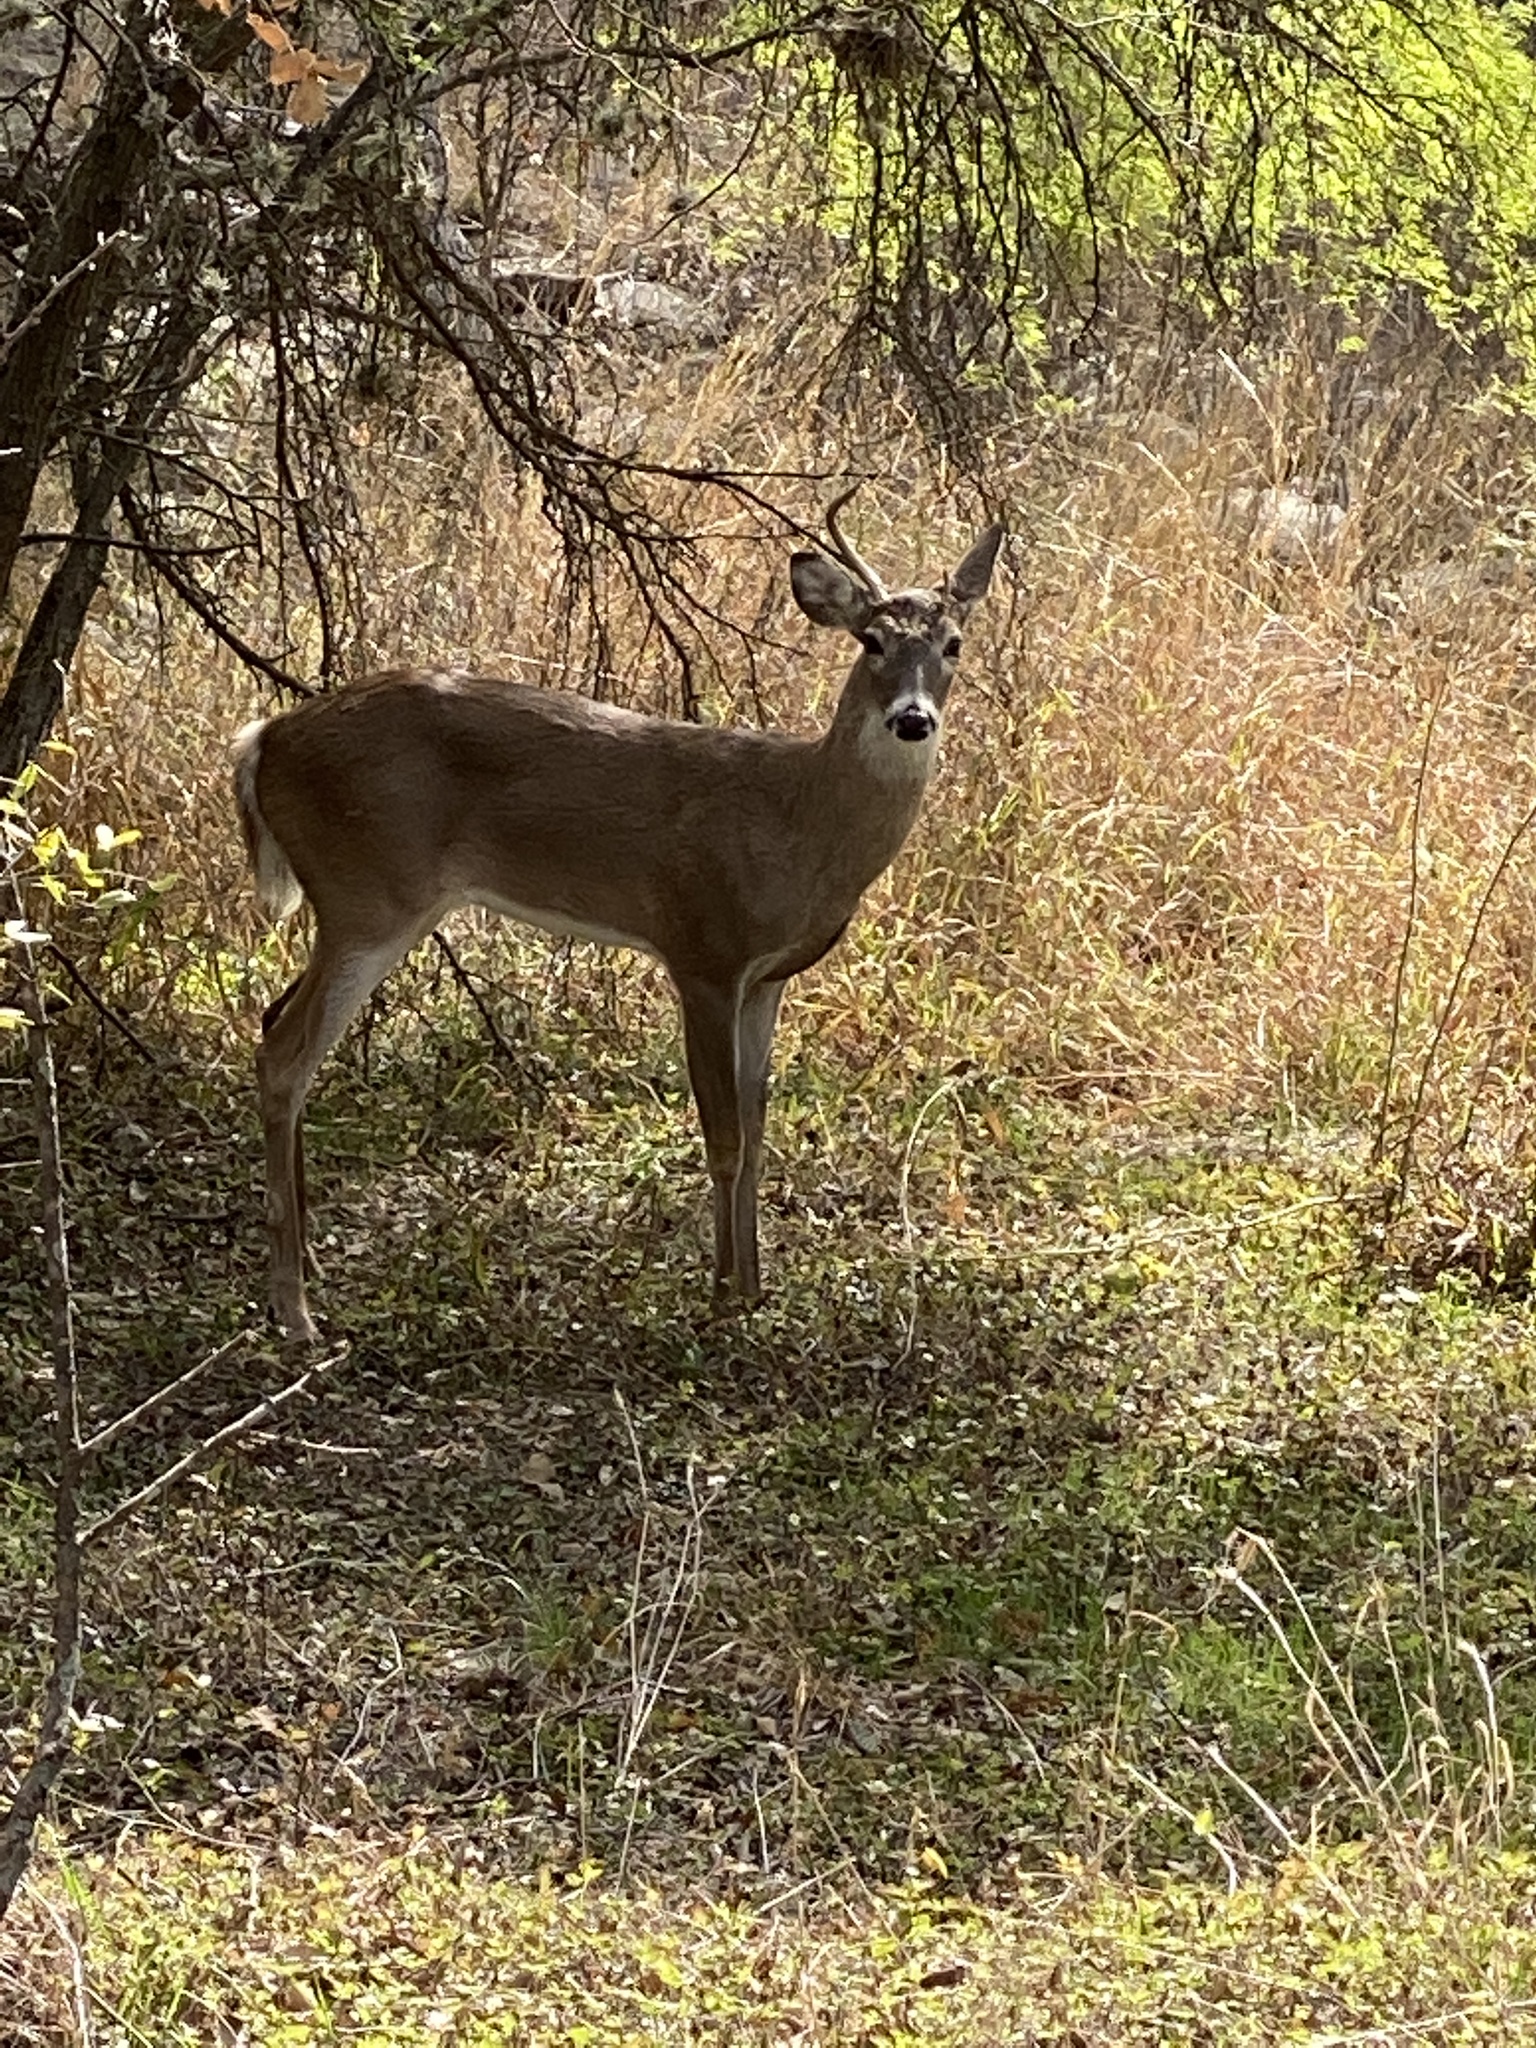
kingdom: Animalia
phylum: Chordata
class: Mammalia
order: Artiodactyla
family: Cervidae
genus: Odocoileus
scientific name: Odocoileus virginianus
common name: White-tailed deer
